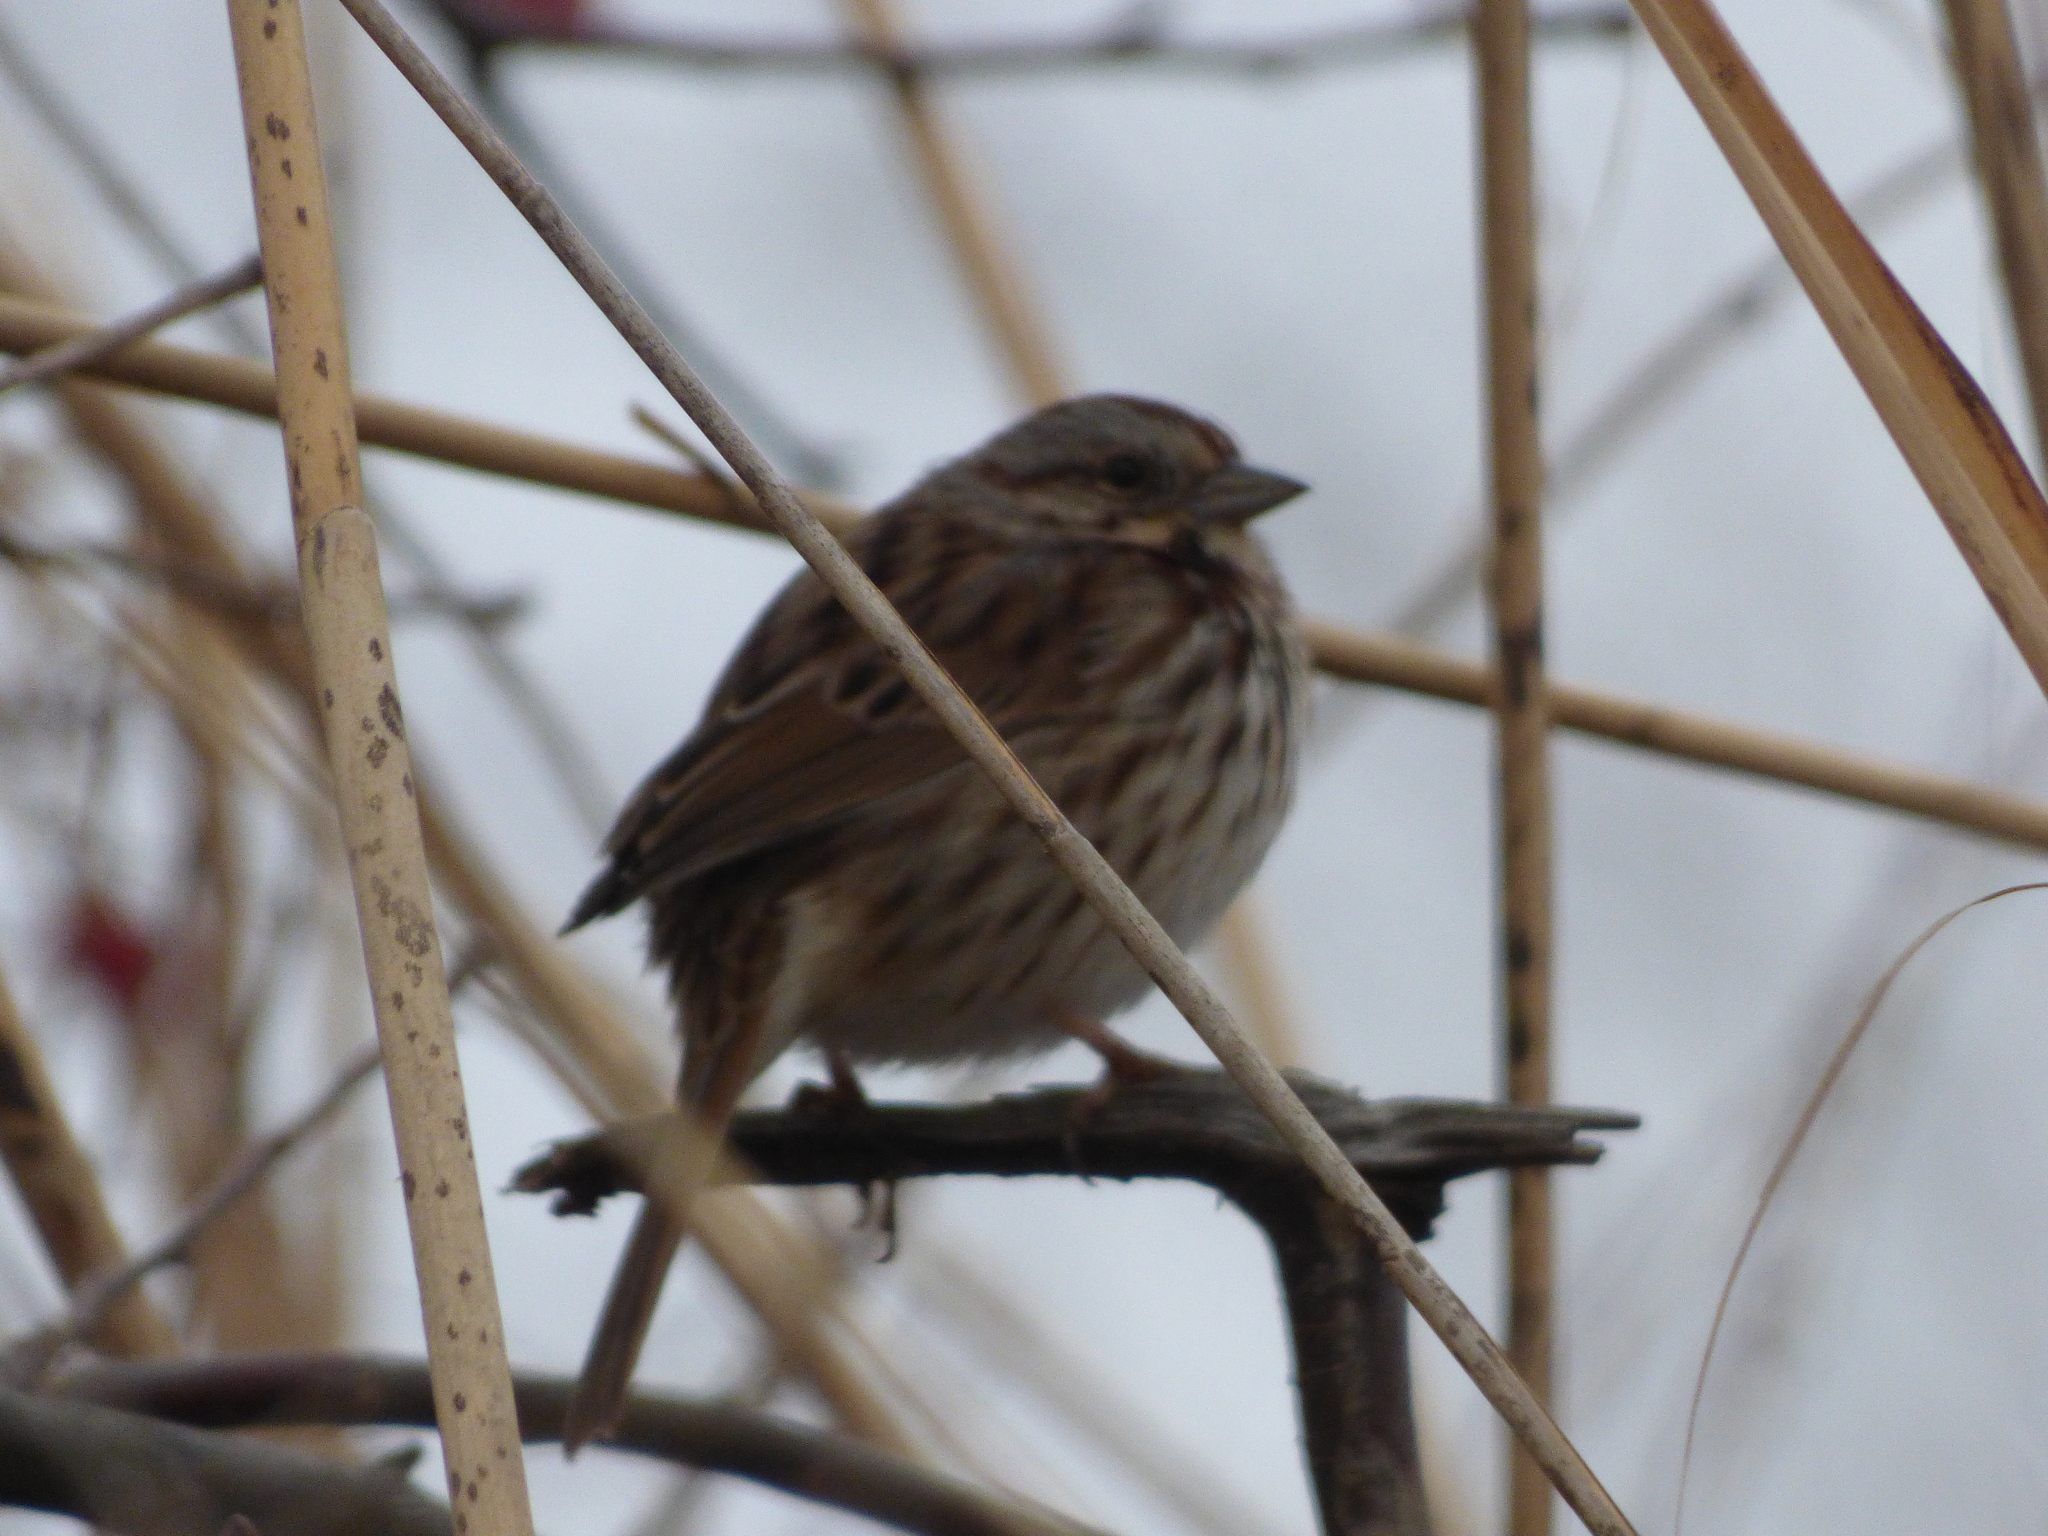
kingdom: Animalia
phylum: Chordata
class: Aves
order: Passeriformes
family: Passerellidae
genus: Melospiza
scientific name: Melospiza melodia
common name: Song sparrow
